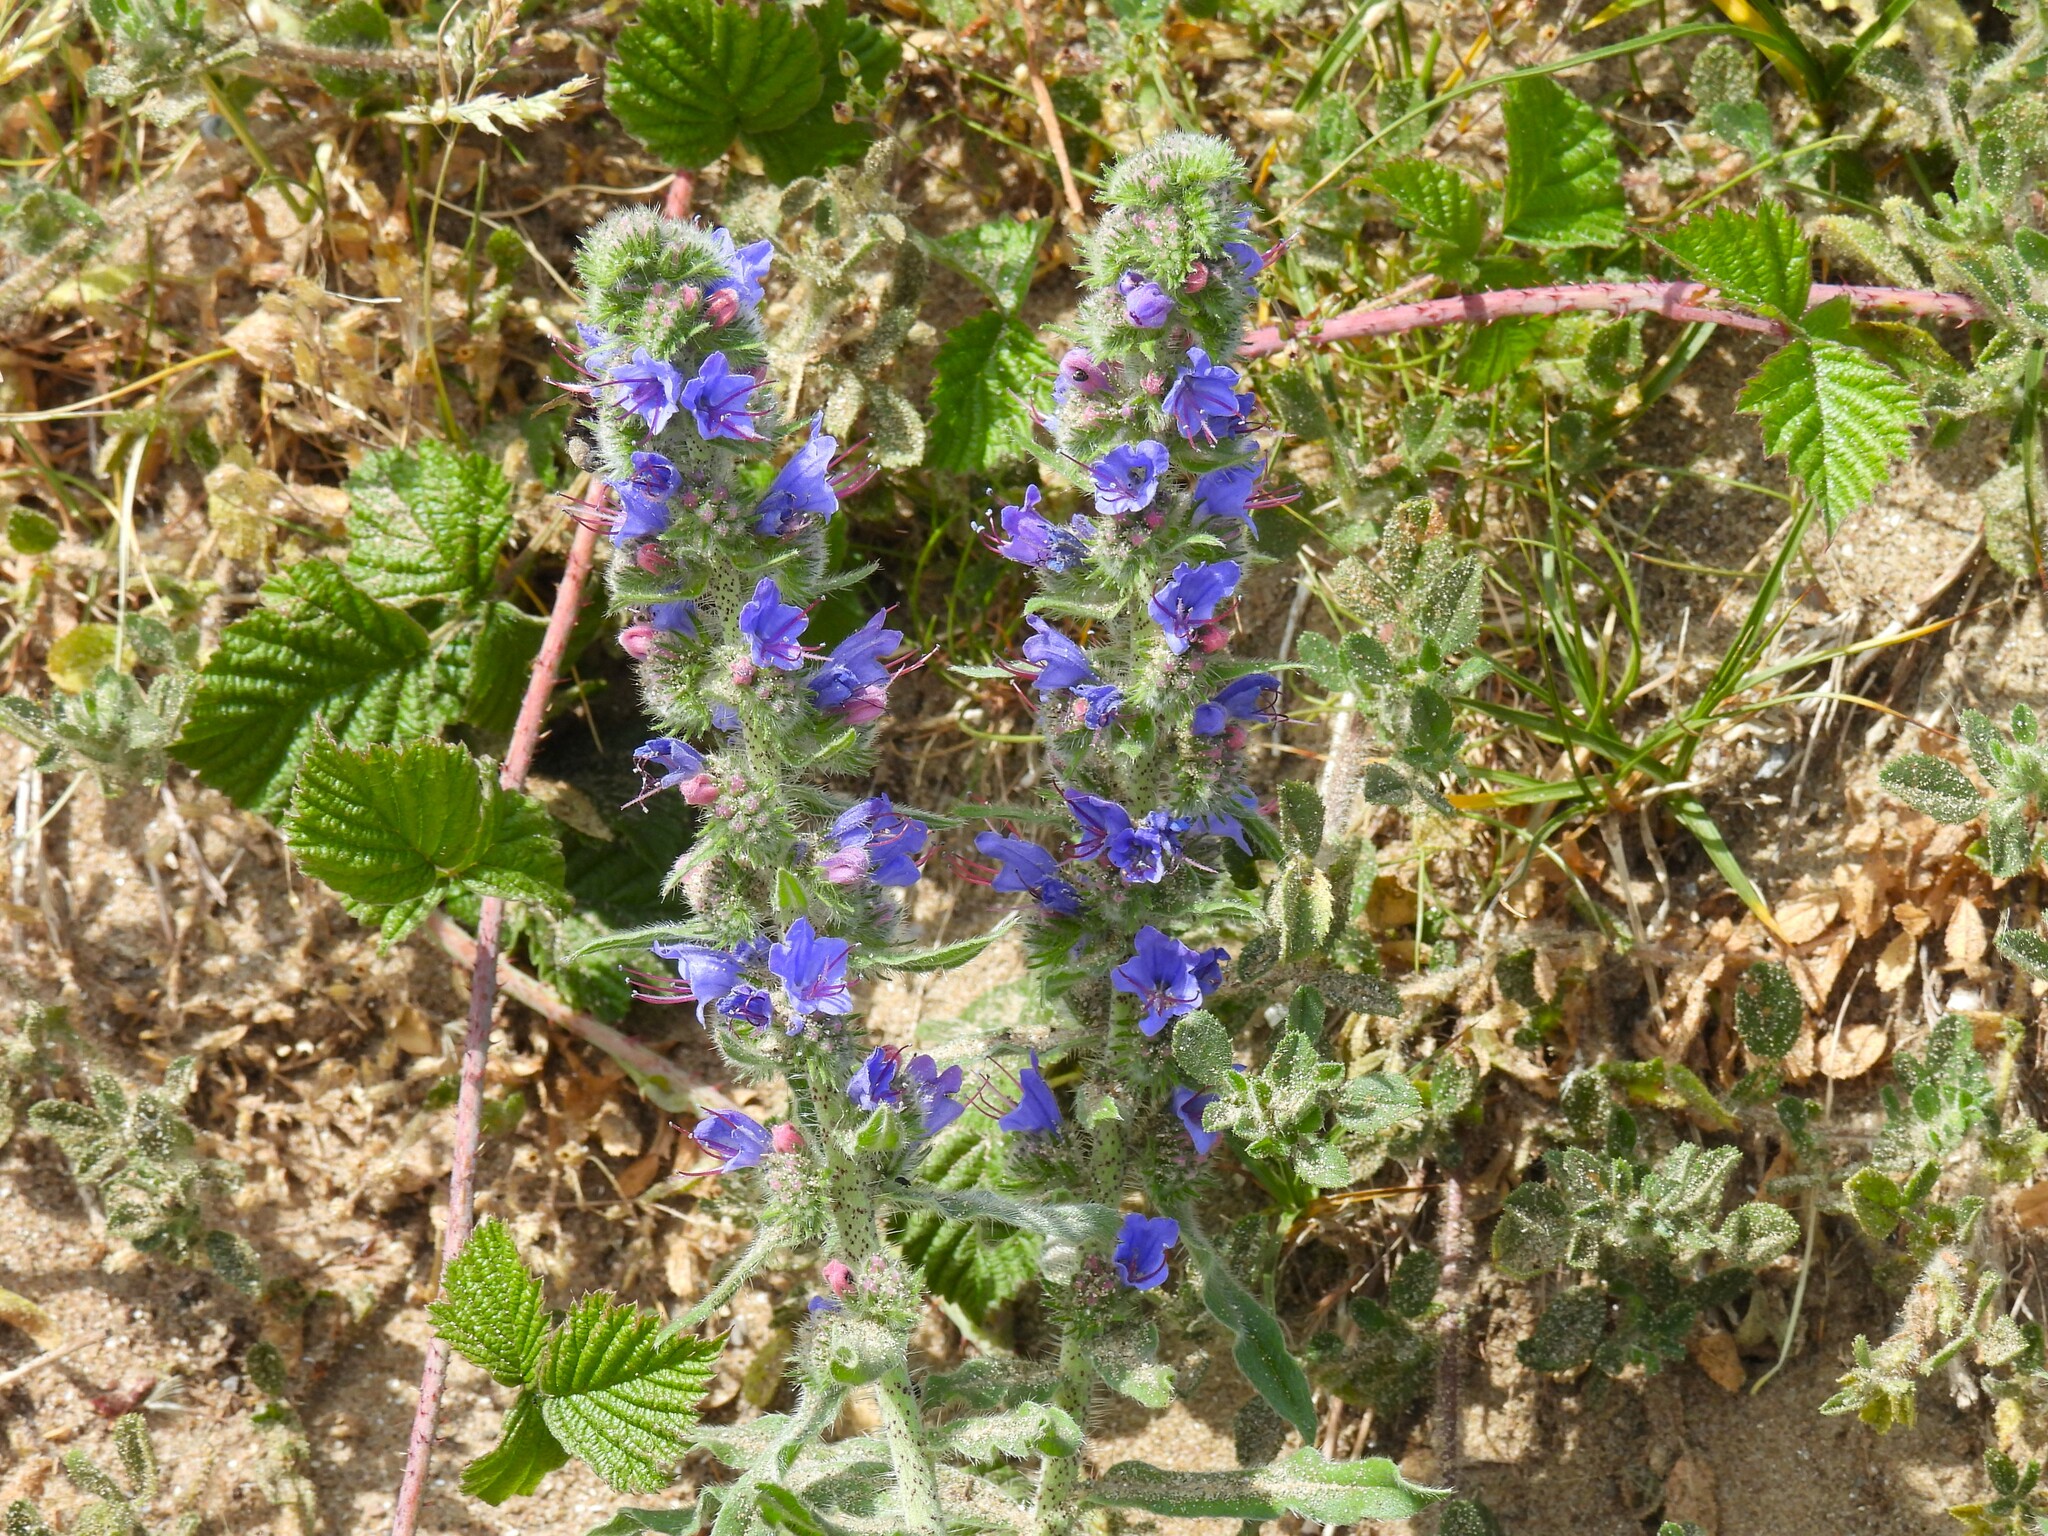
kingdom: Plantae
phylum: Tracheophyta
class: Magnoliopsida
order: Boraginales
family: Boraginaceae
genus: Echium
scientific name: Echium vulgare
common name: Common viper's bugloss
